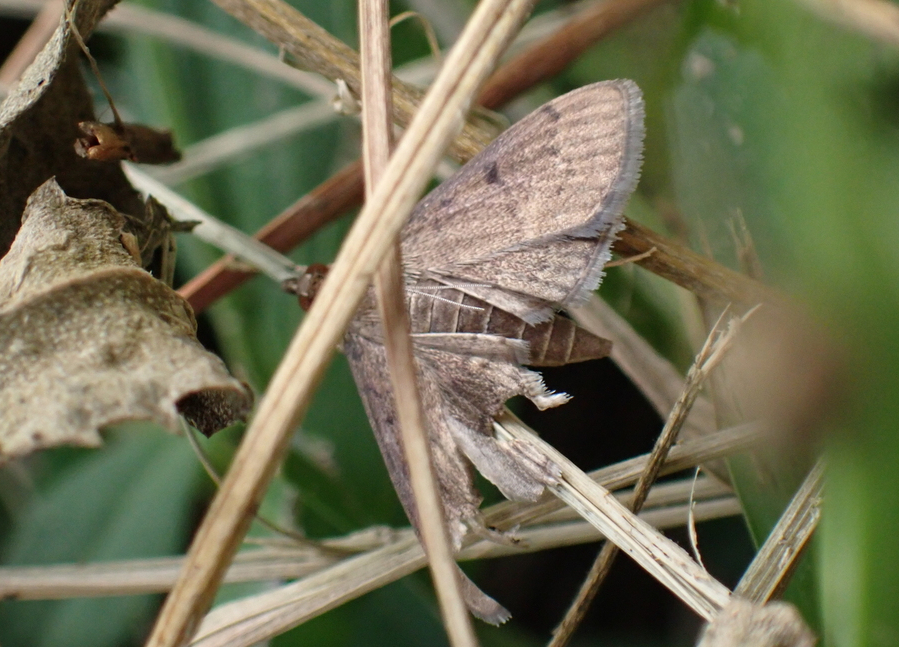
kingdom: Animalia
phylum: Arthropoda
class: Insecta
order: Lepidoptera
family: Crambidae
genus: Herpetogramma
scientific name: Herpetogramma phaeopteralis
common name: Dusky herpetogramma moth
